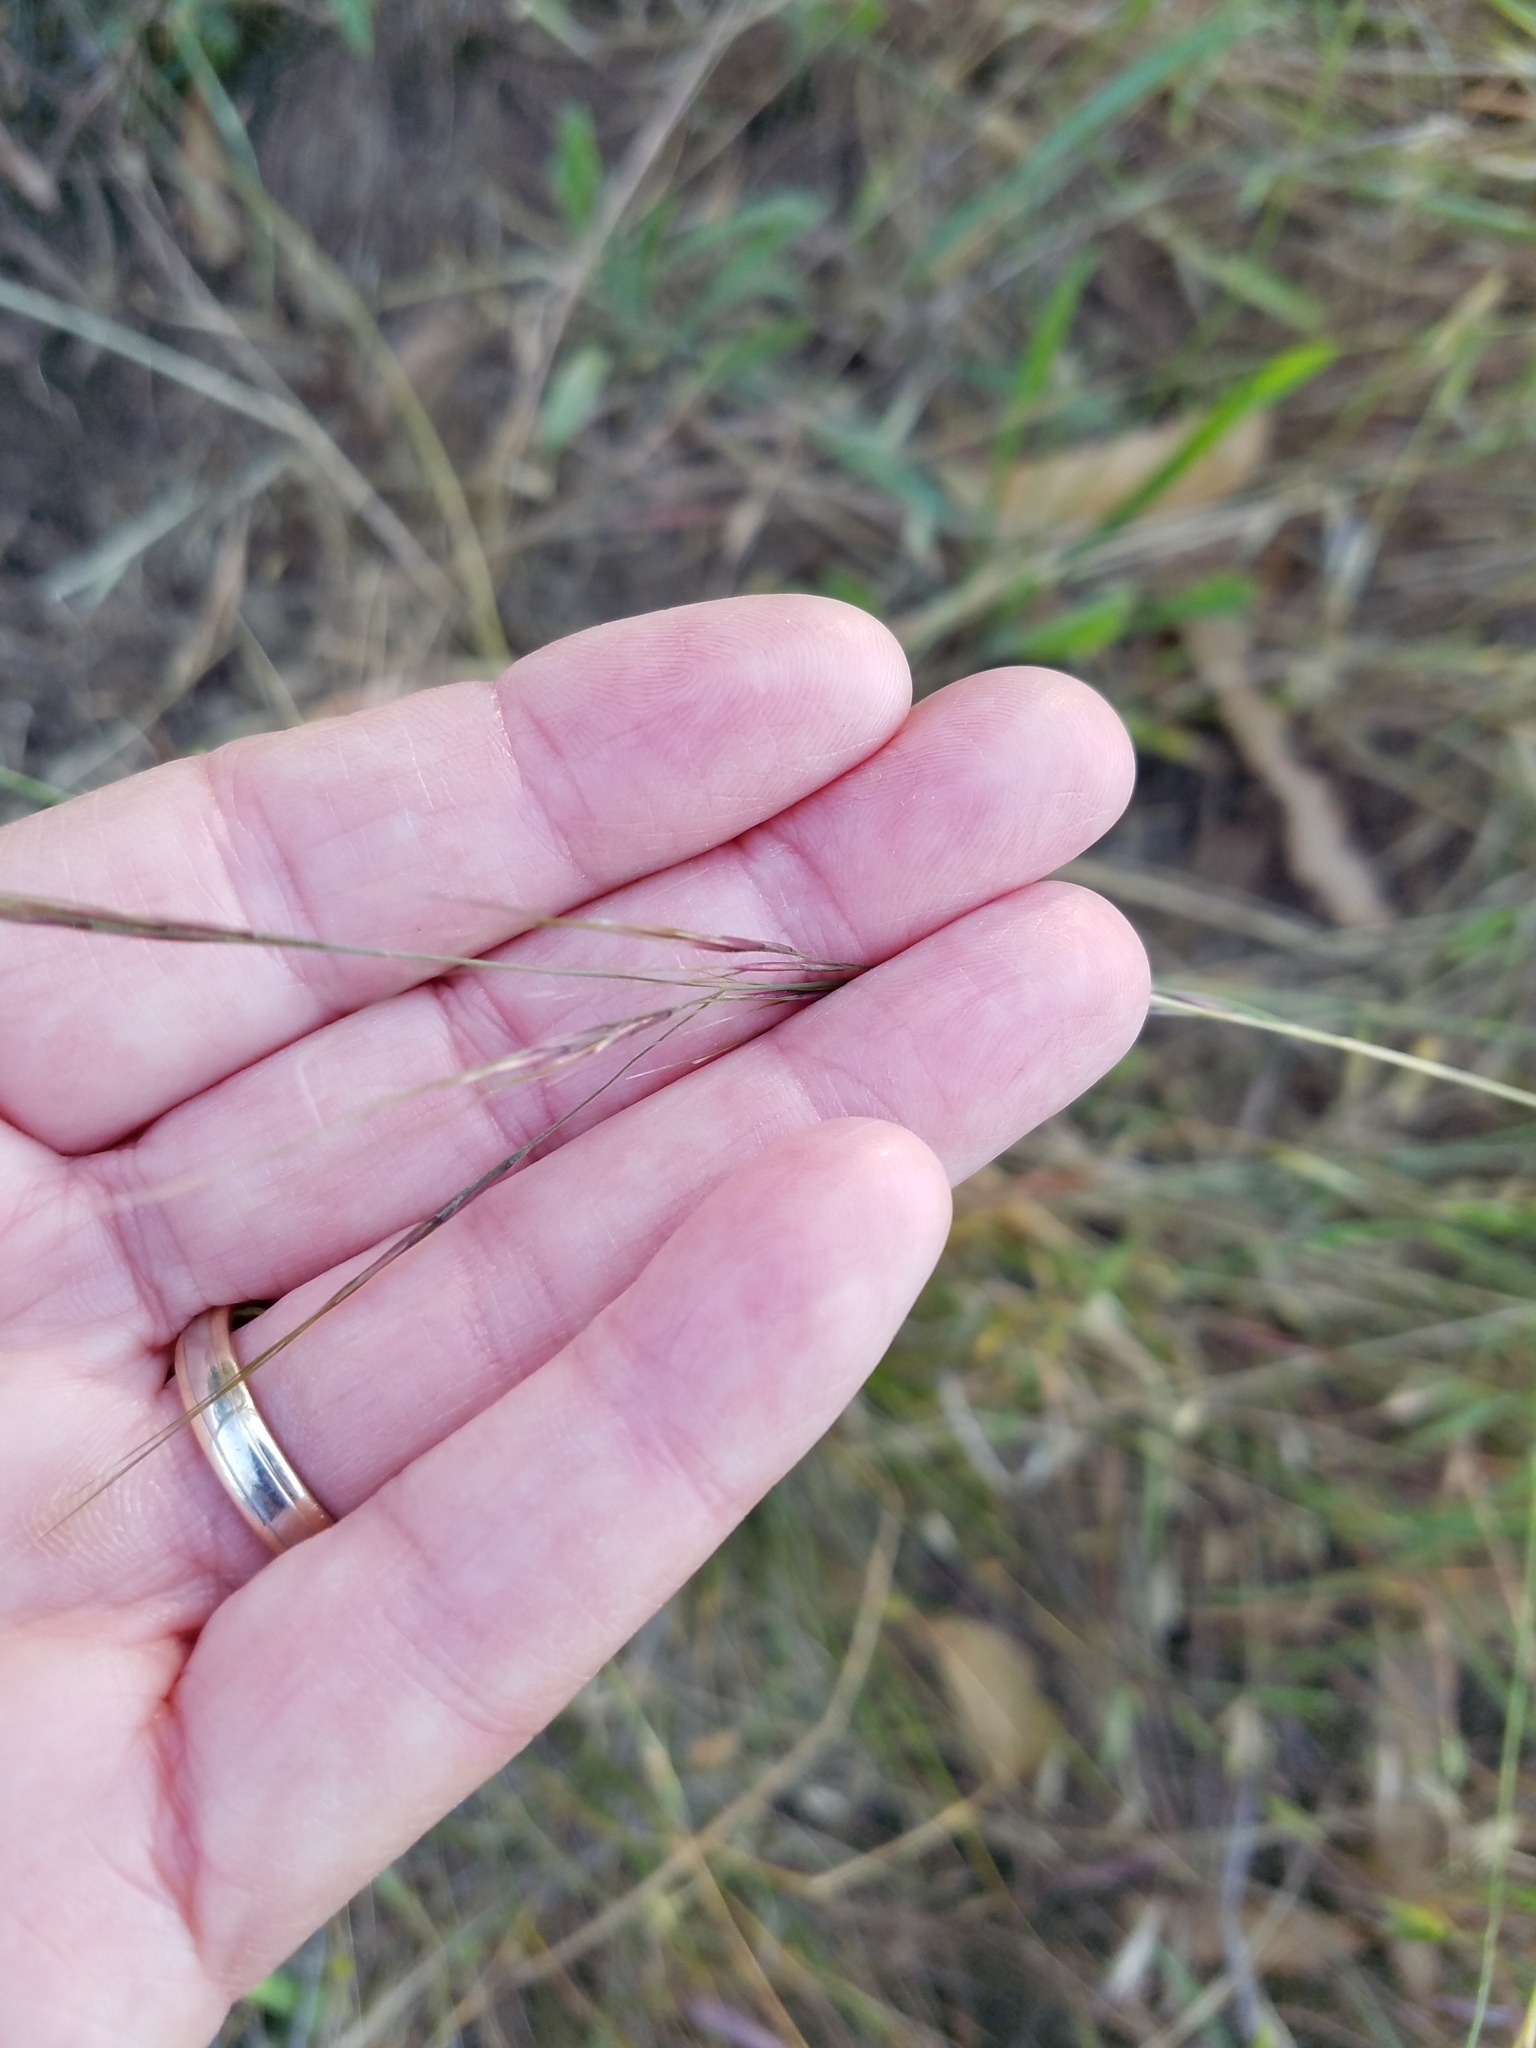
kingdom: Plantae
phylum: Tracheophyta
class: Liliopsida
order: Poales
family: Poaceae
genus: Nassella
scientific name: Nassella lepida
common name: Foothill needlegrass
